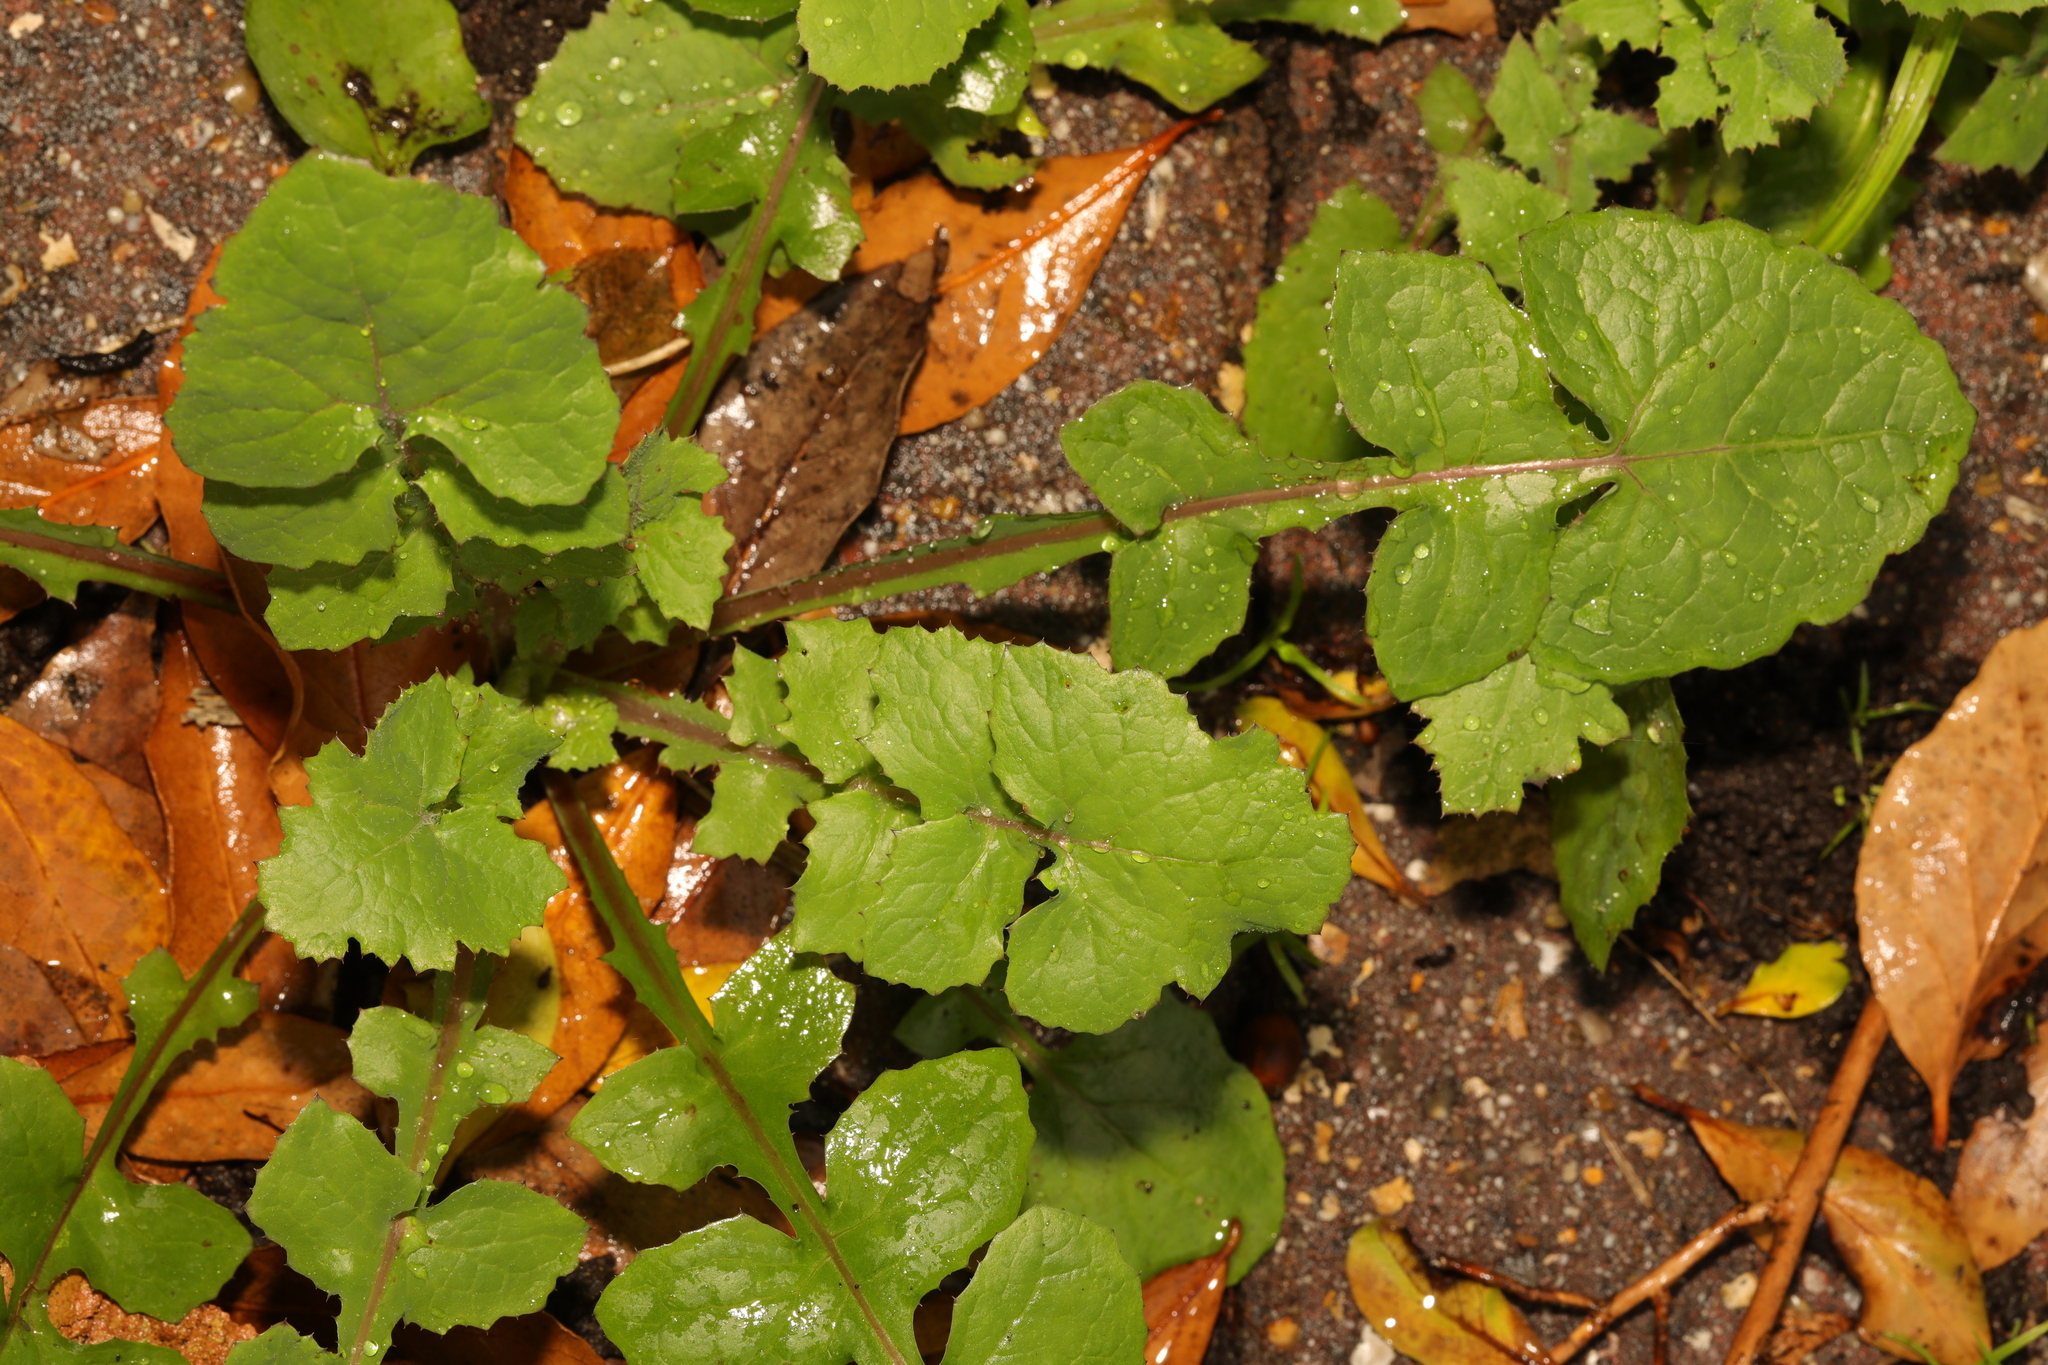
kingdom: Plantae
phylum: Tracheophyta
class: Magnoliopsida
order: Asterales
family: Asteraceae
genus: Sonchus
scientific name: Sonchus oleraceus
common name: Common sowthistle
